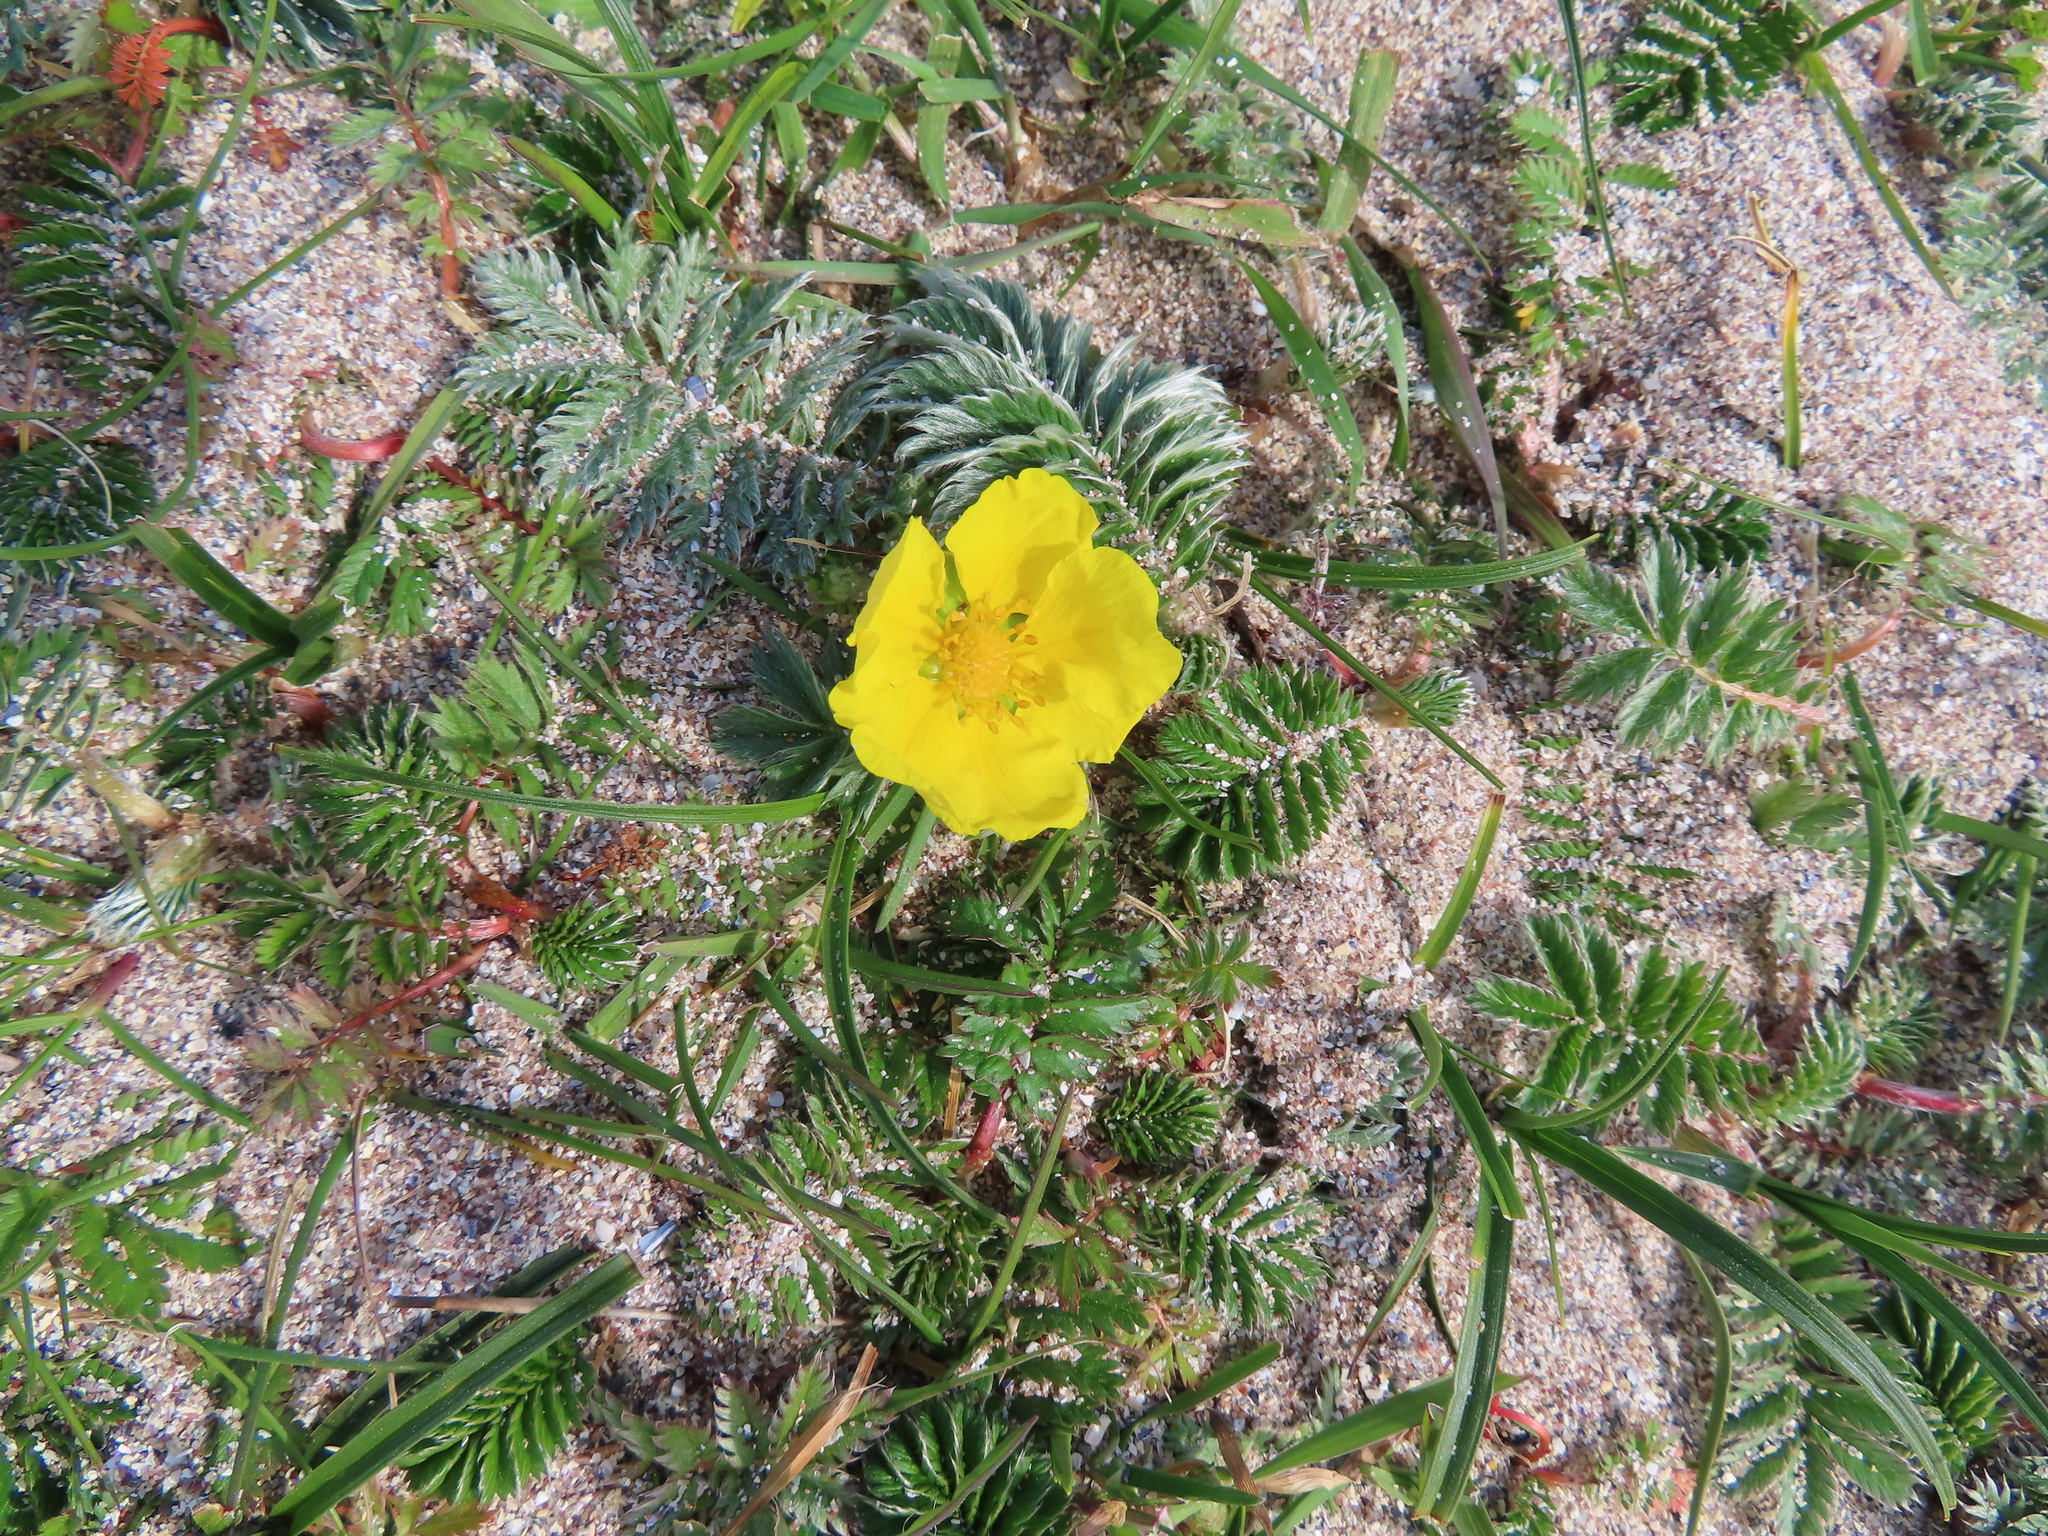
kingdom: Plantae
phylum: Tracheophyta
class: Magnoliopsida
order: Rosales
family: Rosaceae
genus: Argentina
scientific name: Argentina anserina
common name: Common silverweed
